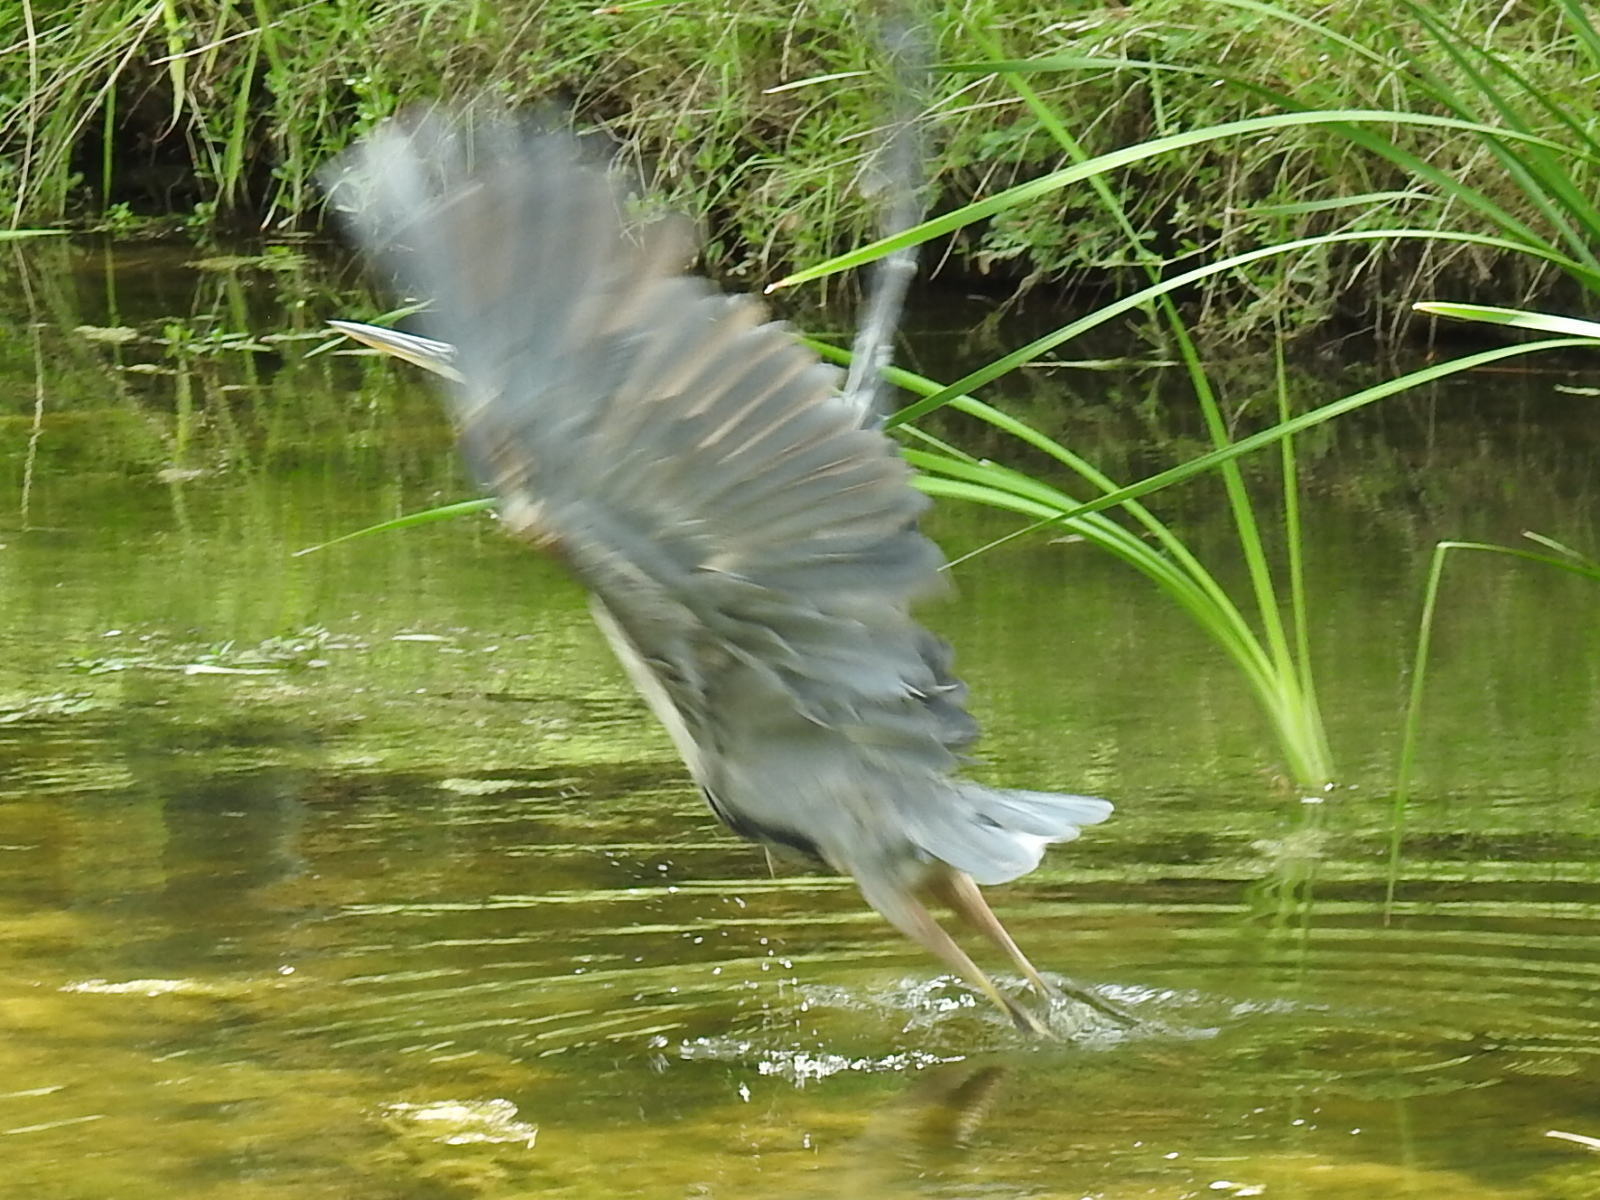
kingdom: Animalia
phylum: Chordata
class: Aves
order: Pelecaniformes
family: Ardeidae
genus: Ardea
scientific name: Ardea herodias
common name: Great blue heron
